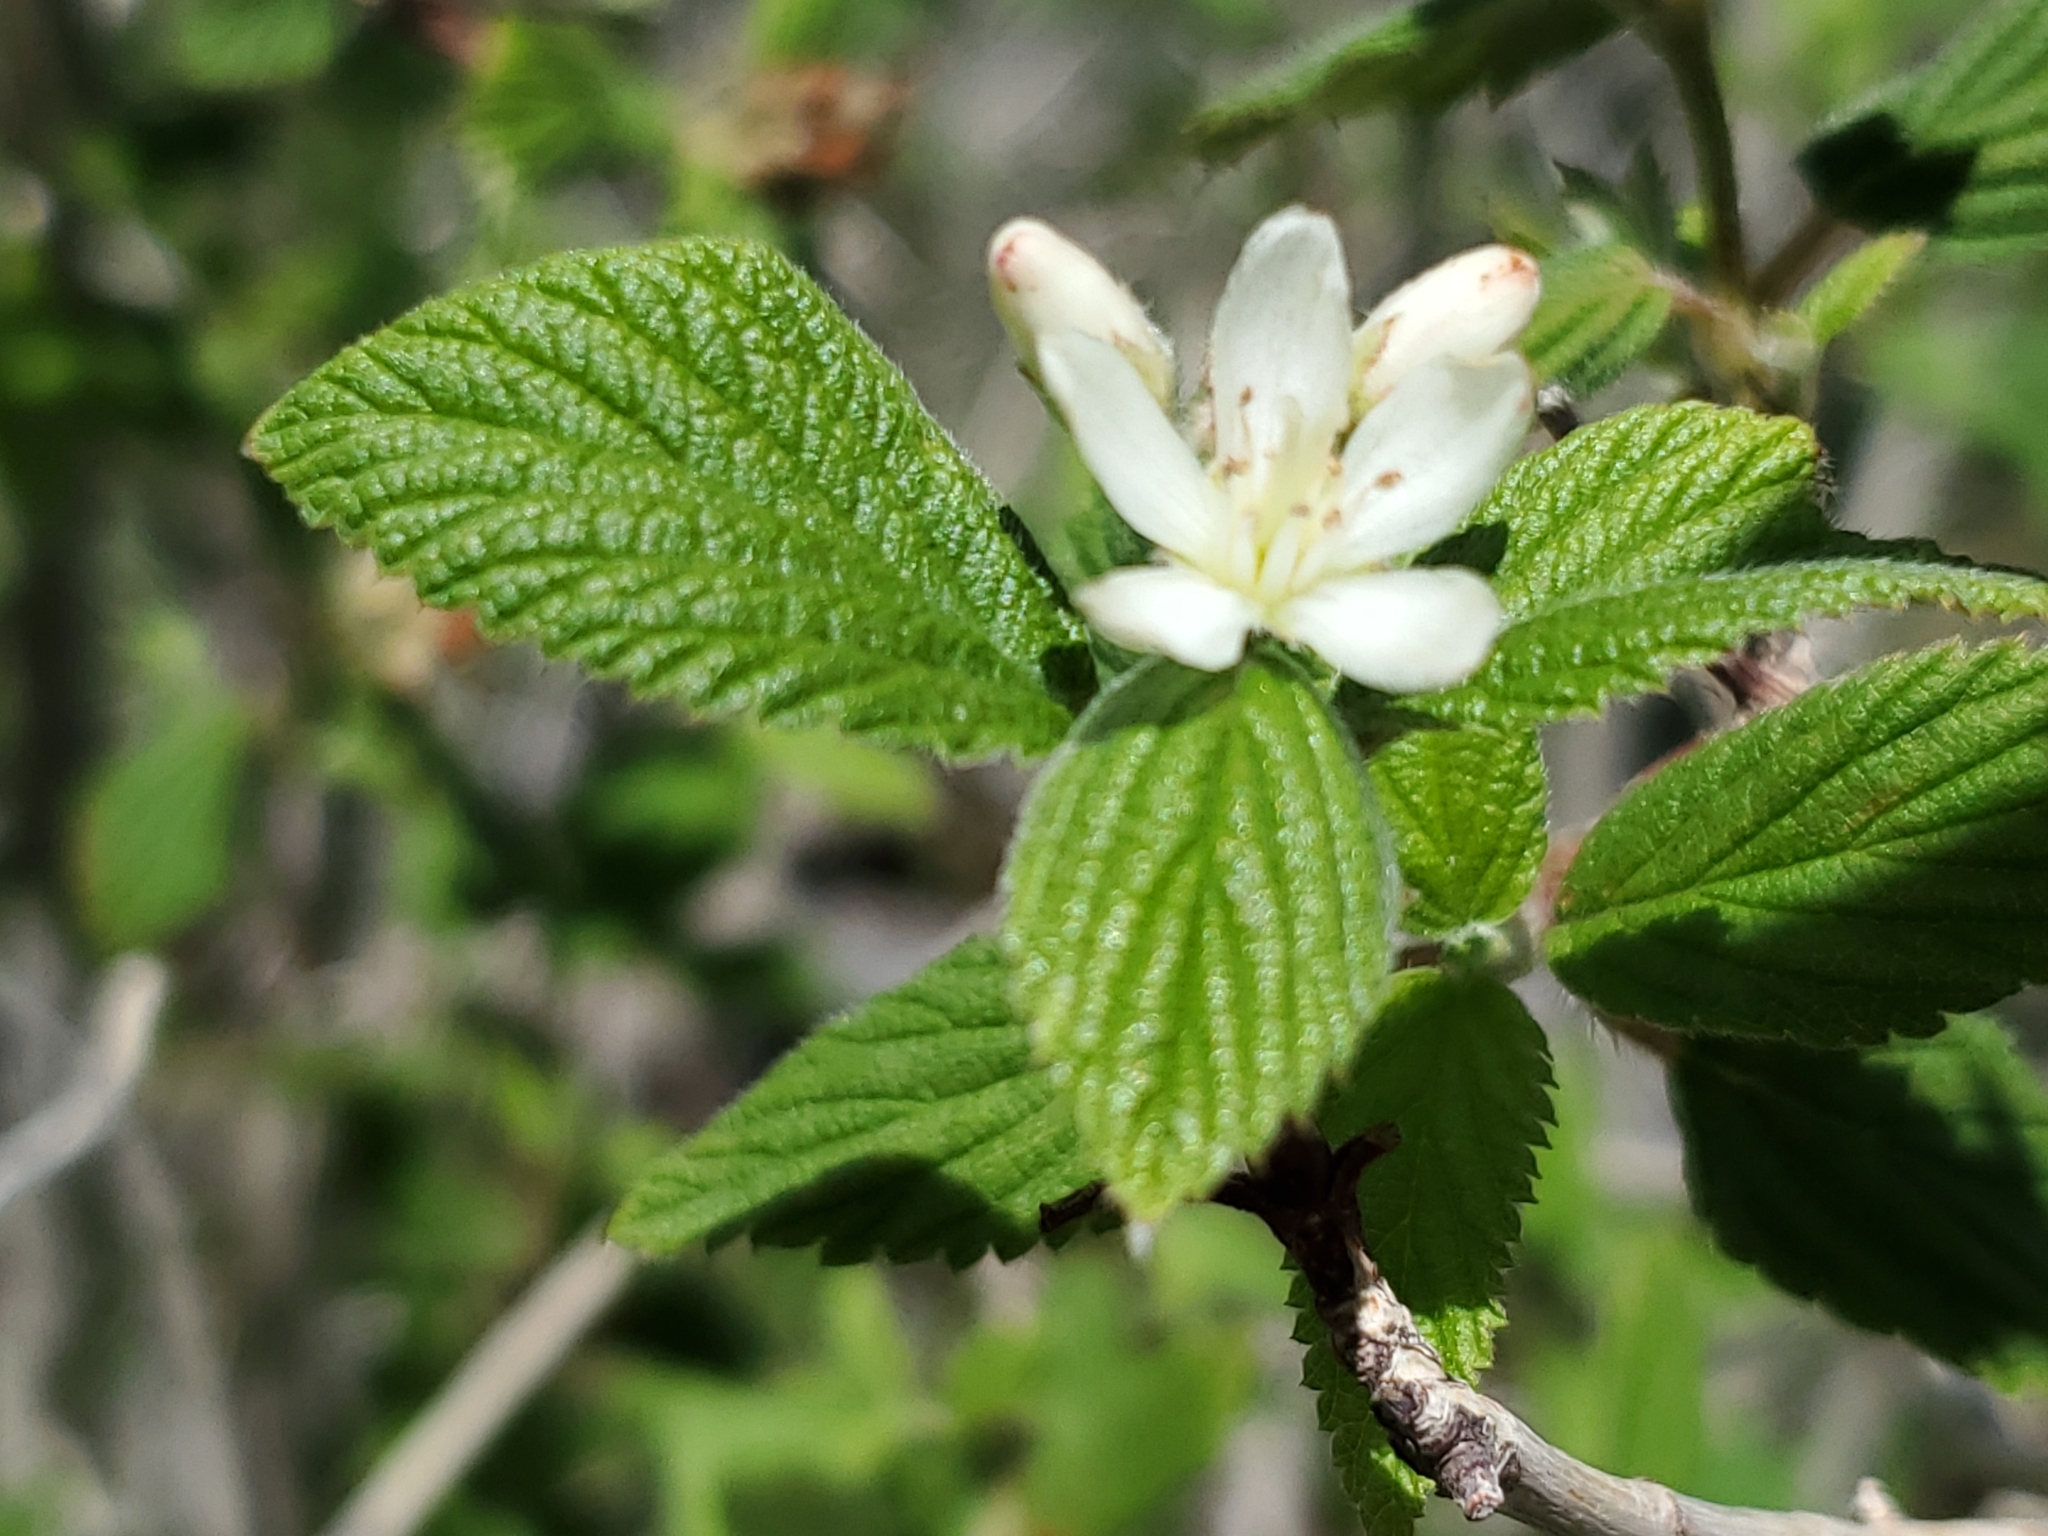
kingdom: Plantae
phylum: Tracheophyta
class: Magnoliopsida
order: Cornales
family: Hydrangeaceae
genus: Jamesia
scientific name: Jamesia americana
